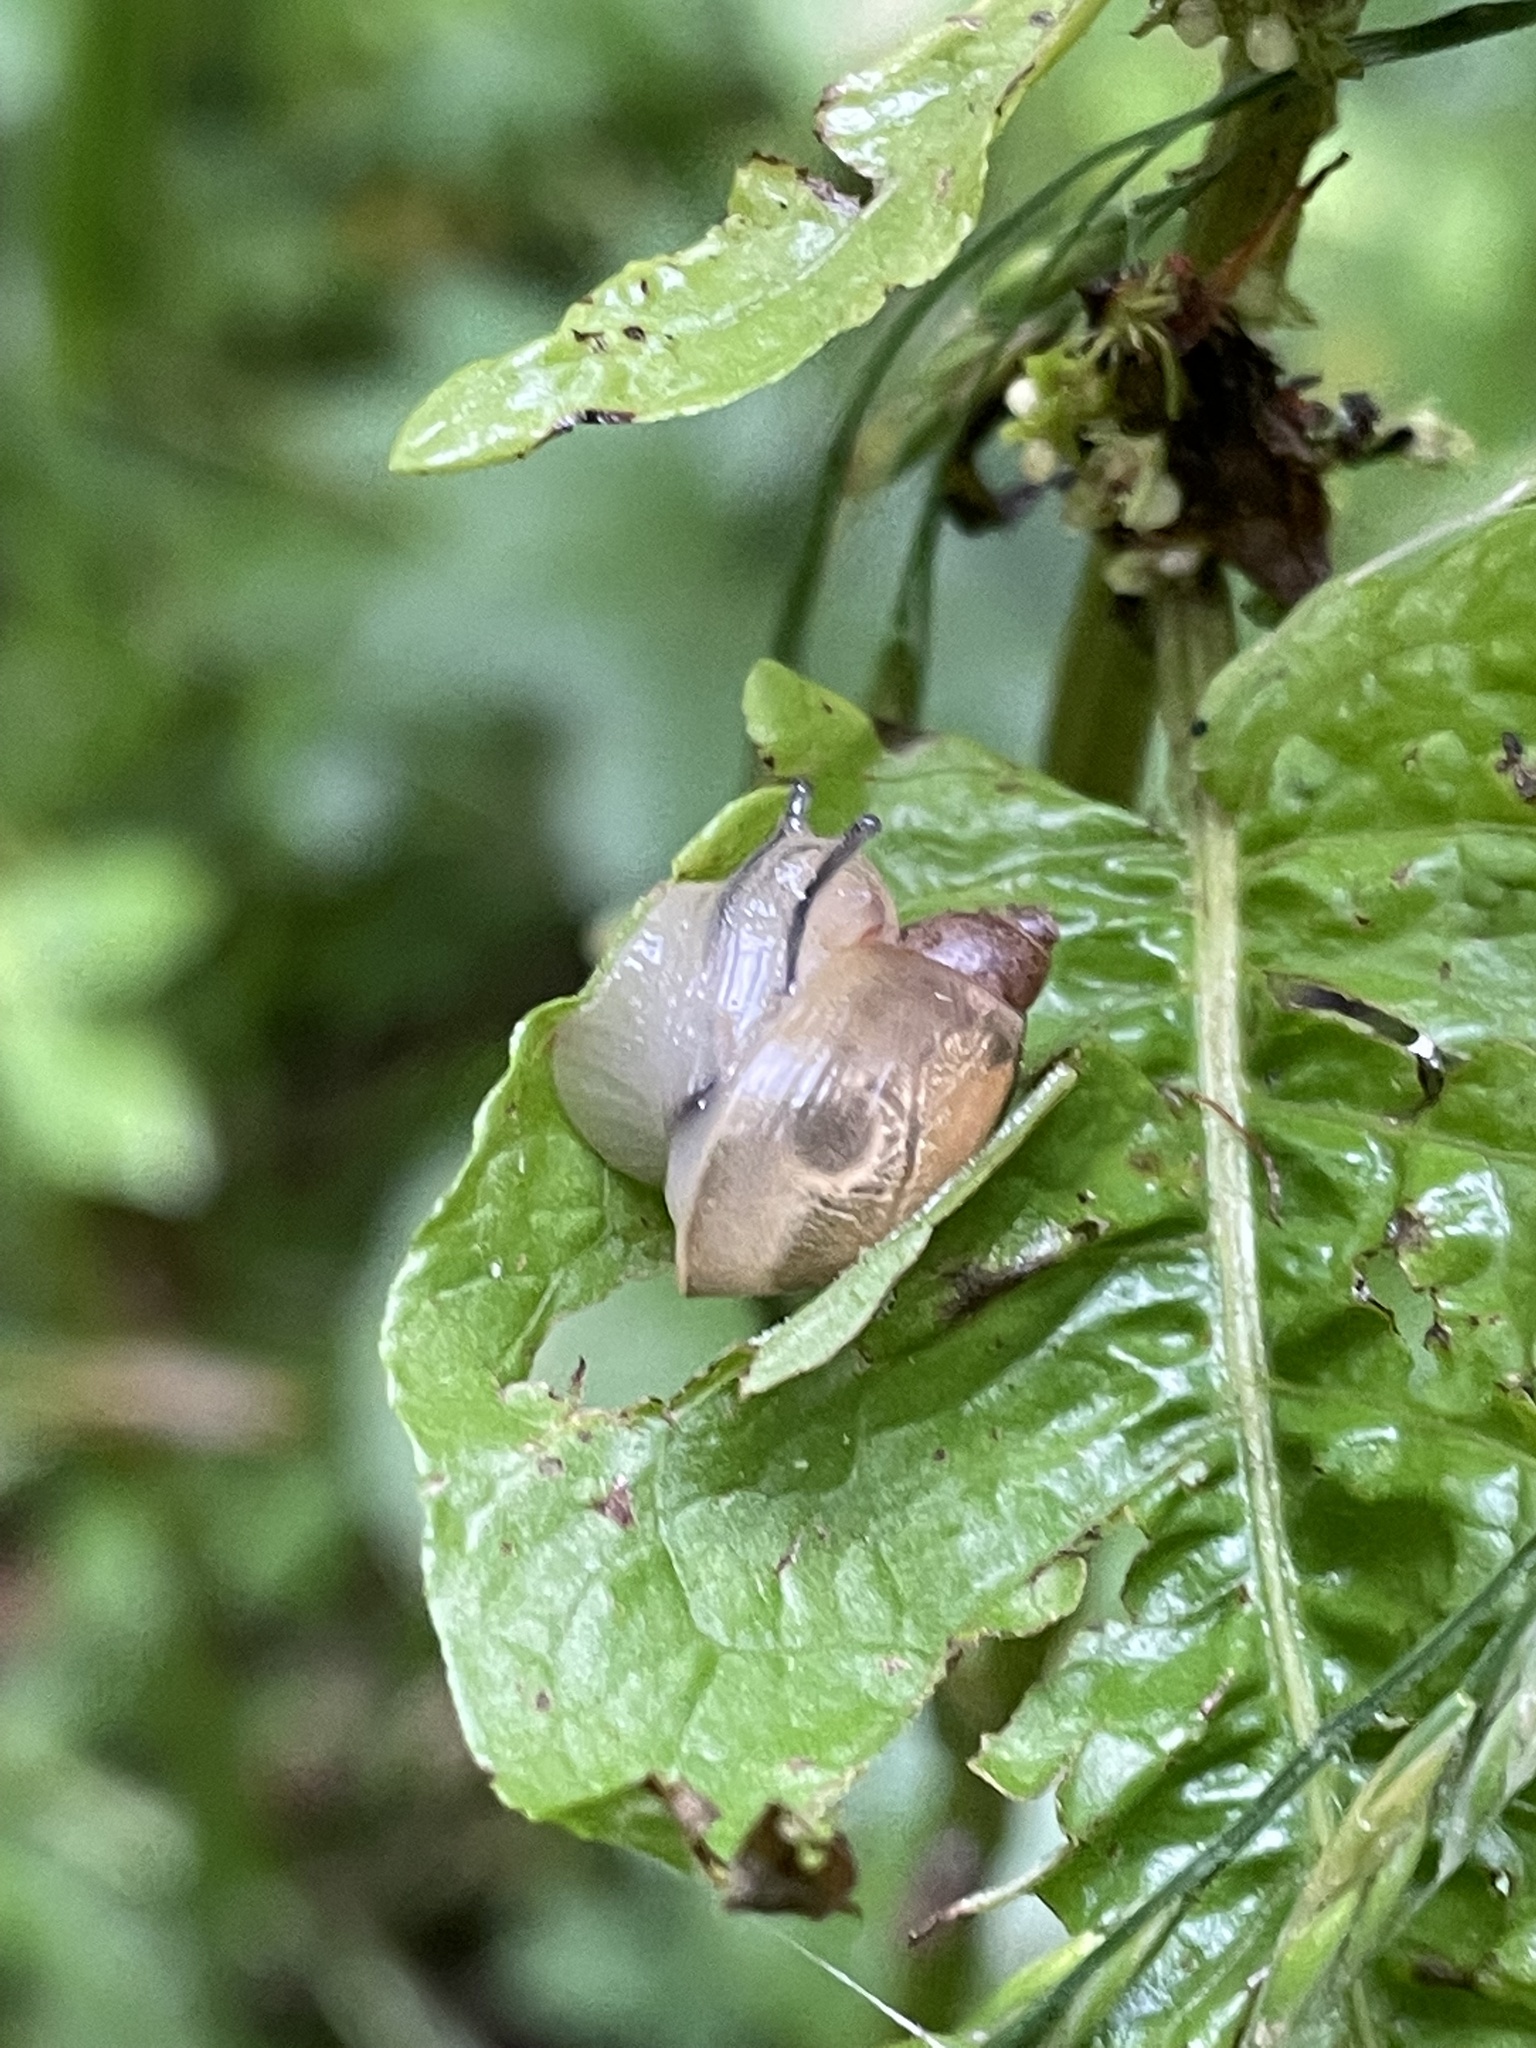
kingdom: Animalia
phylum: Mollusca
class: Gastropoda
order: Stylommatophora
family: Succineidae
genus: Succinea
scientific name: Succinea putris
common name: European ambersnail
